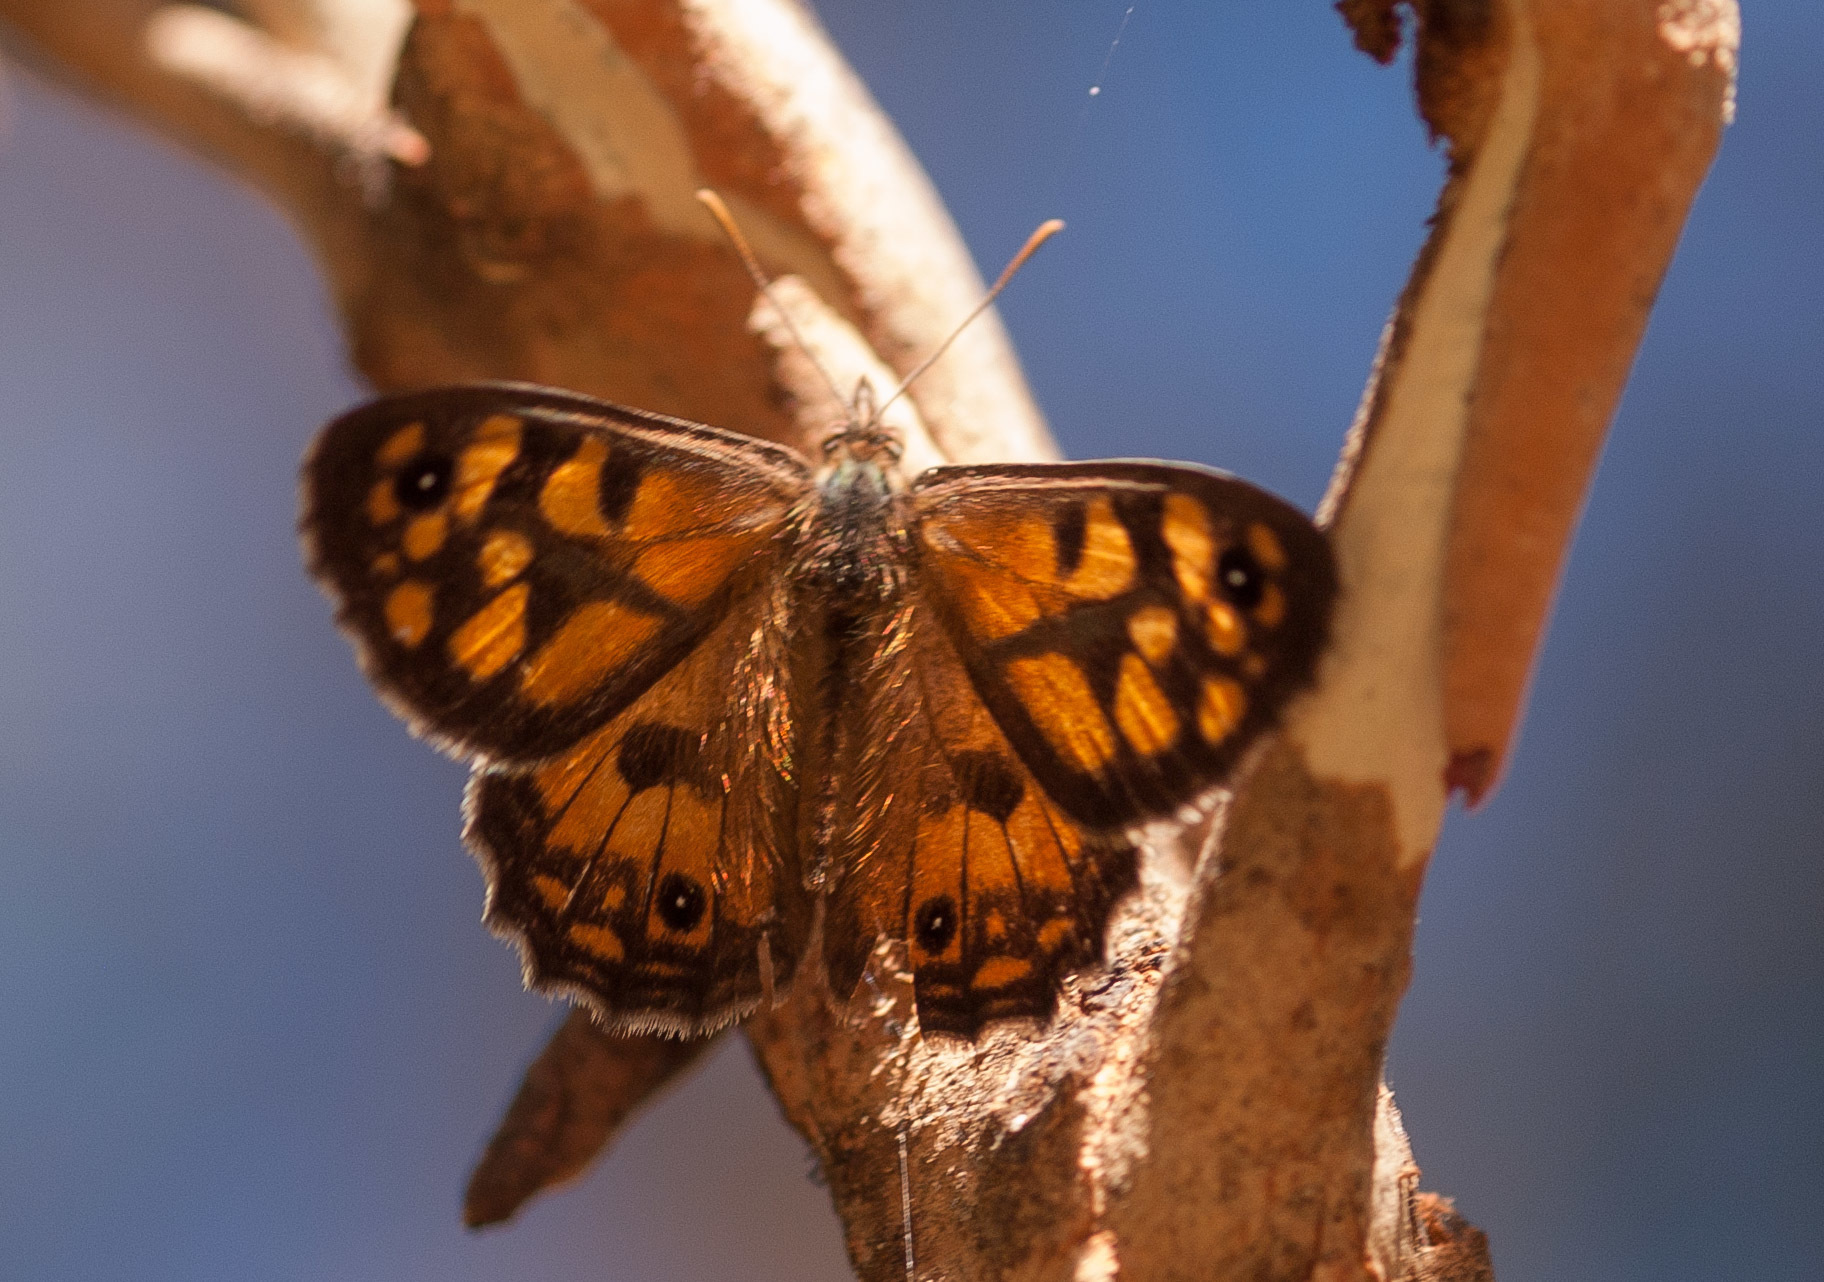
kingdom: Animalia
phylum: Arthropoda
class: Insecta
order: Lepidoptera
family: Nymphalidae
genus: Geitoneura
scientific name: Geitoneura klugii
